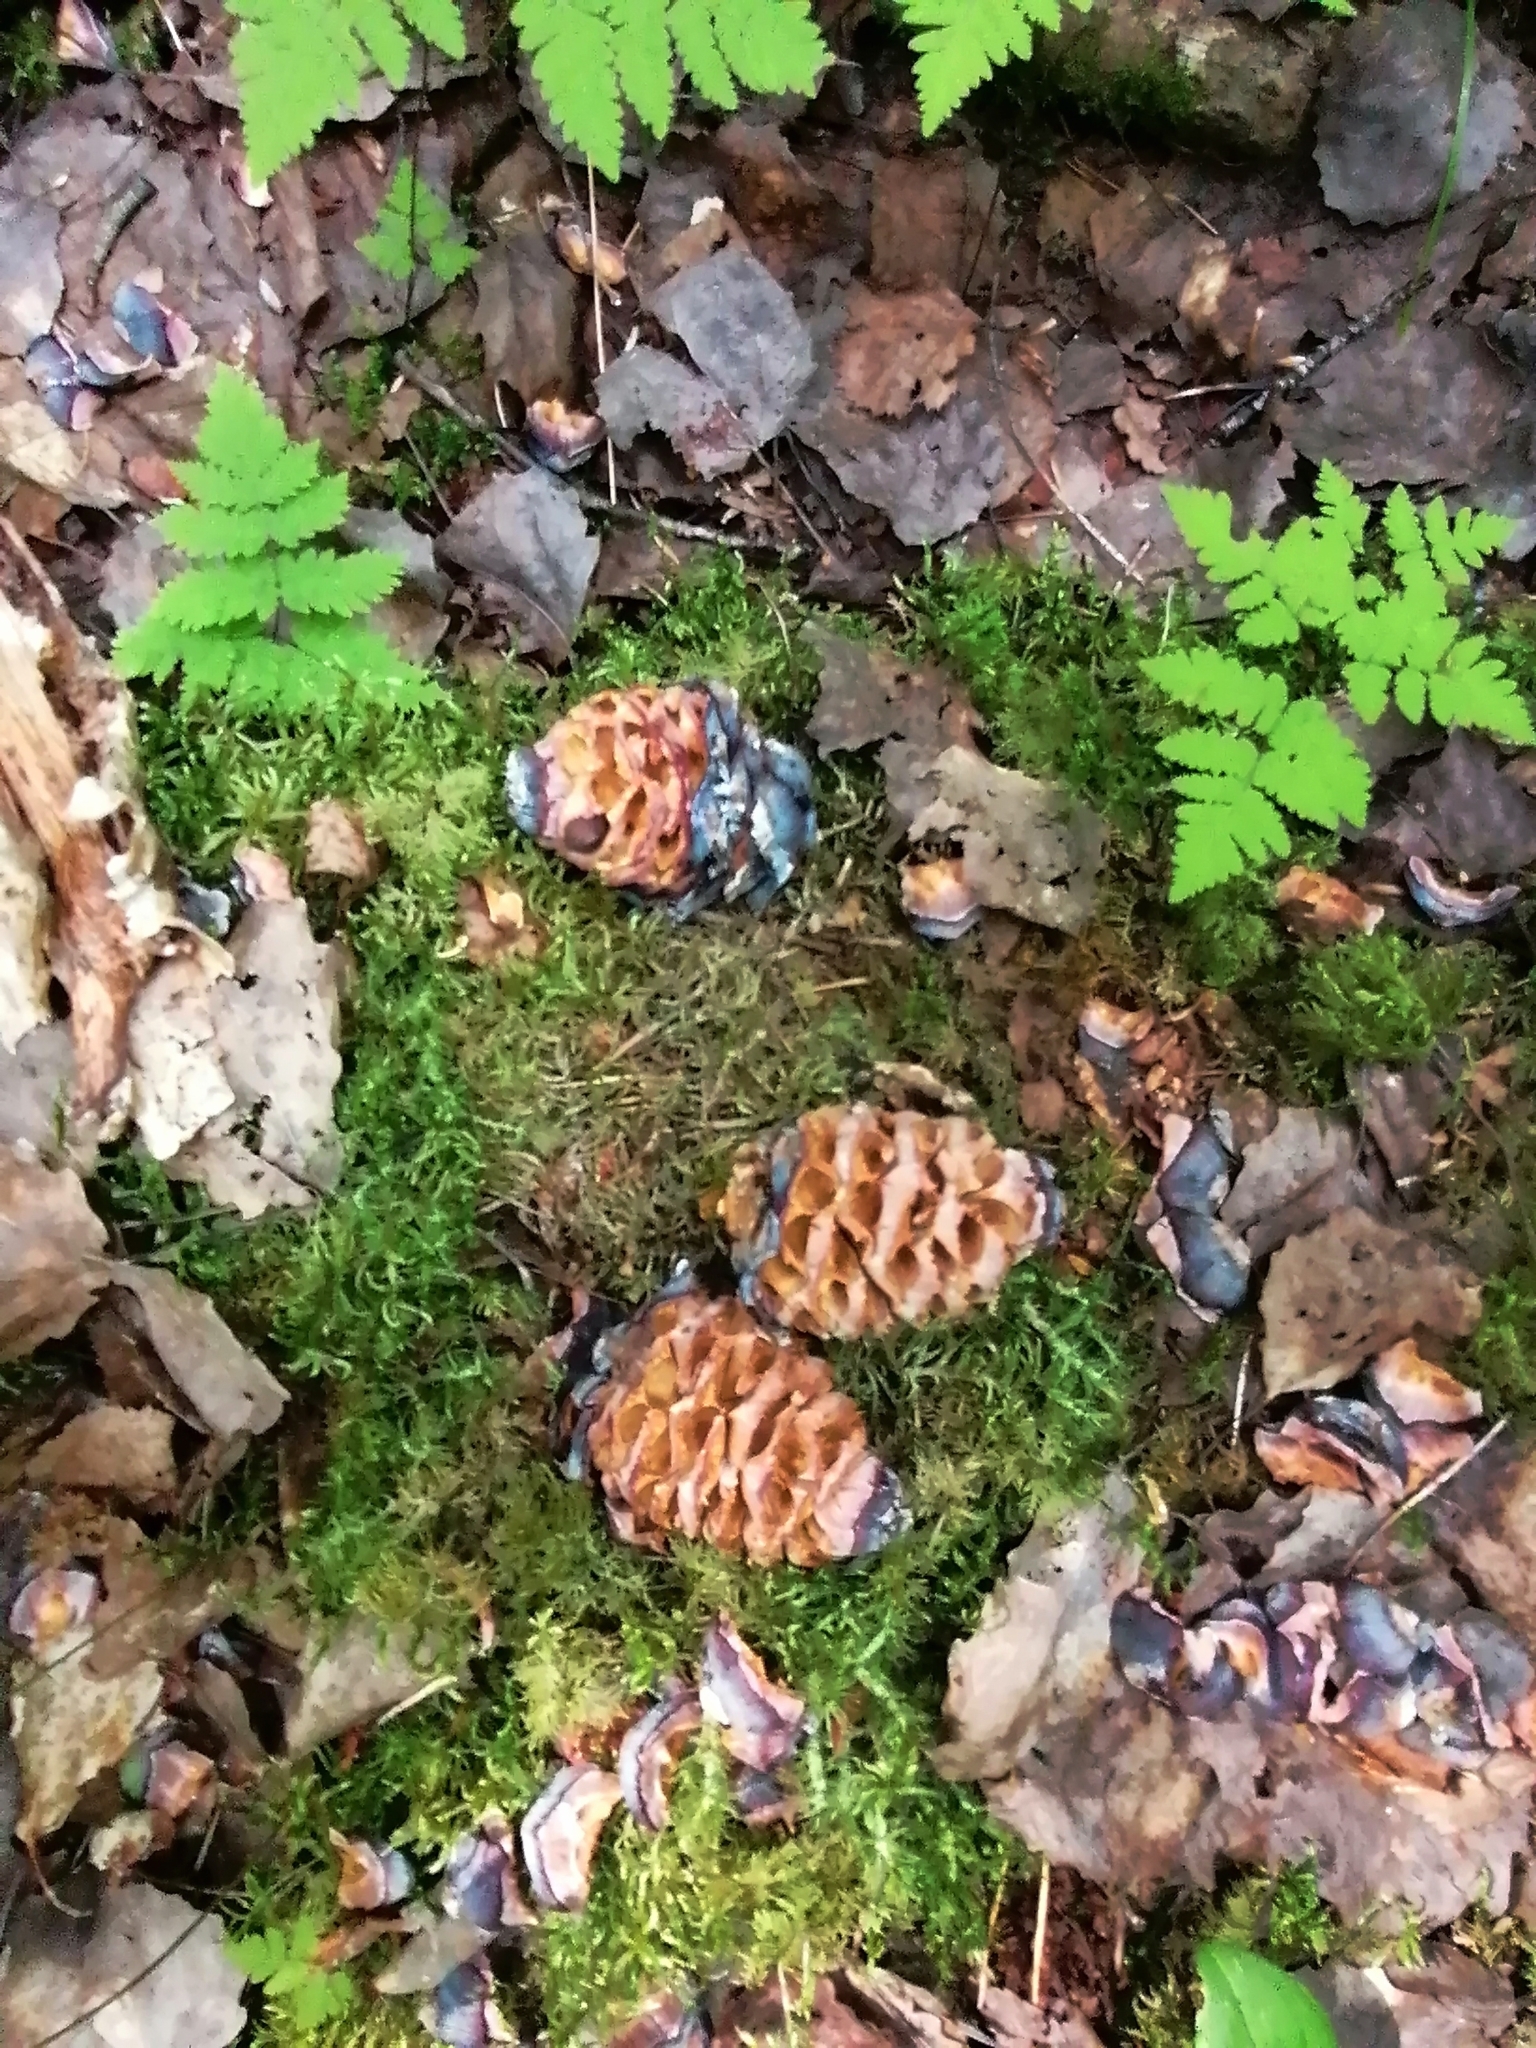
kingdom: Animalia
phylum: Chordata
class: Mammalia
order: Rodentia
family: Sciuridae
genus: Sciurus
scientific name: Sciurus vulgaris
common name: Eurasian red squirrel
